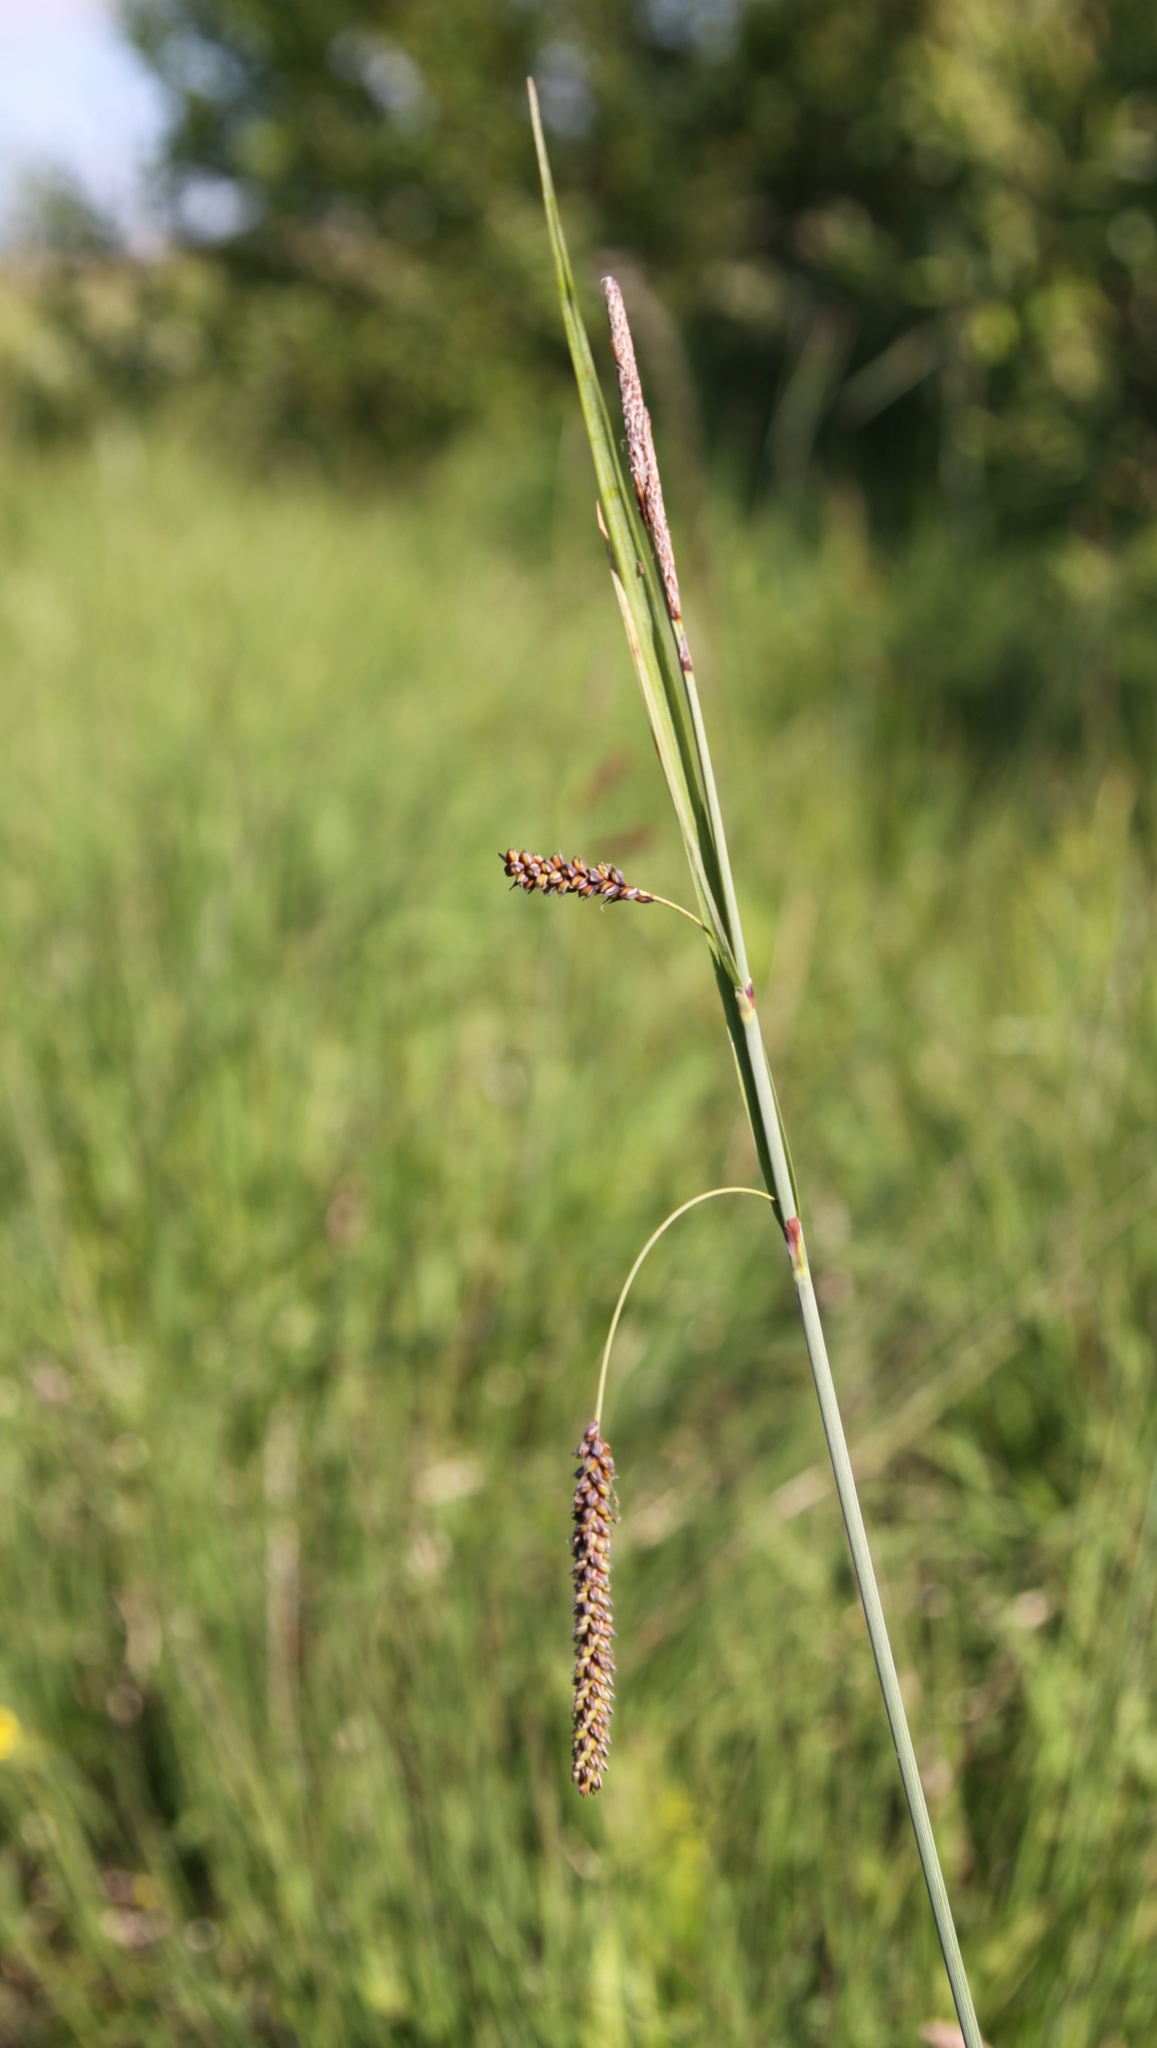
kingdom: Plantae
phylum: Tracheophyta
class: Liliopsida
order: Poales
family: Cyperaceae
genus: Carex
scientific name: Carex flacca
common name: Glaucous sedge
